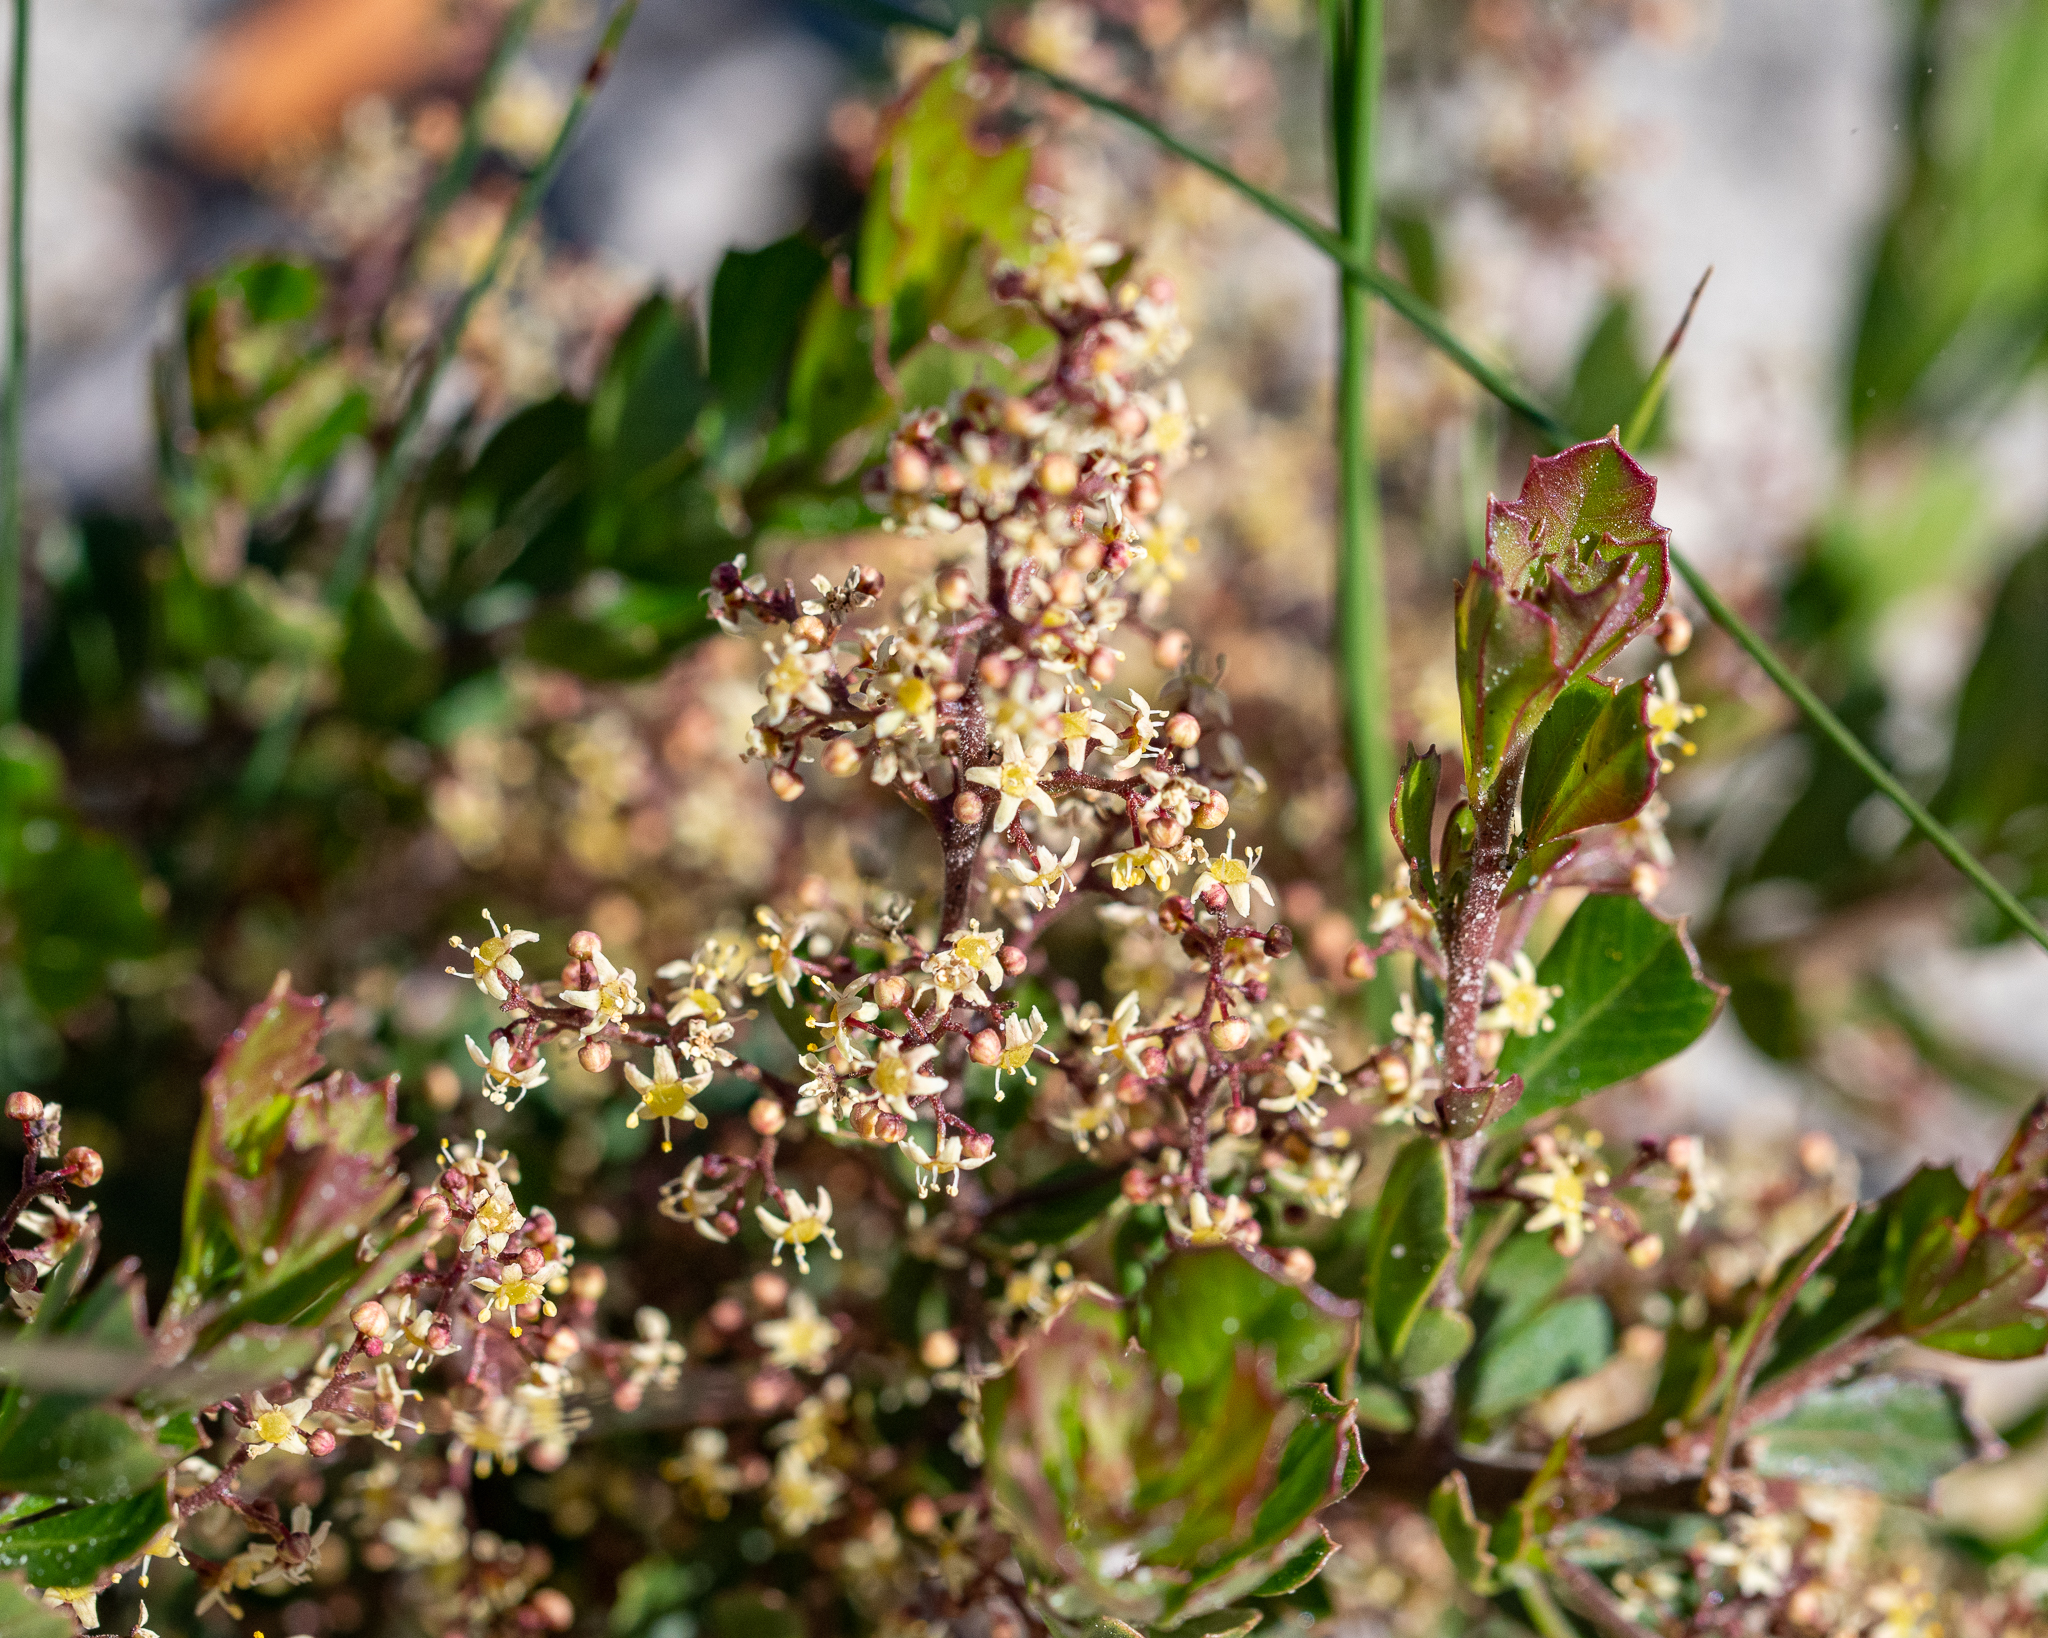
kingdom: Plantae
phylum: Tracheophyta
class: Magnoliopsida
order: Sapindales
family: Anacardiaceae
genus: Searsia
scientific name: Searsia cuneifolia
